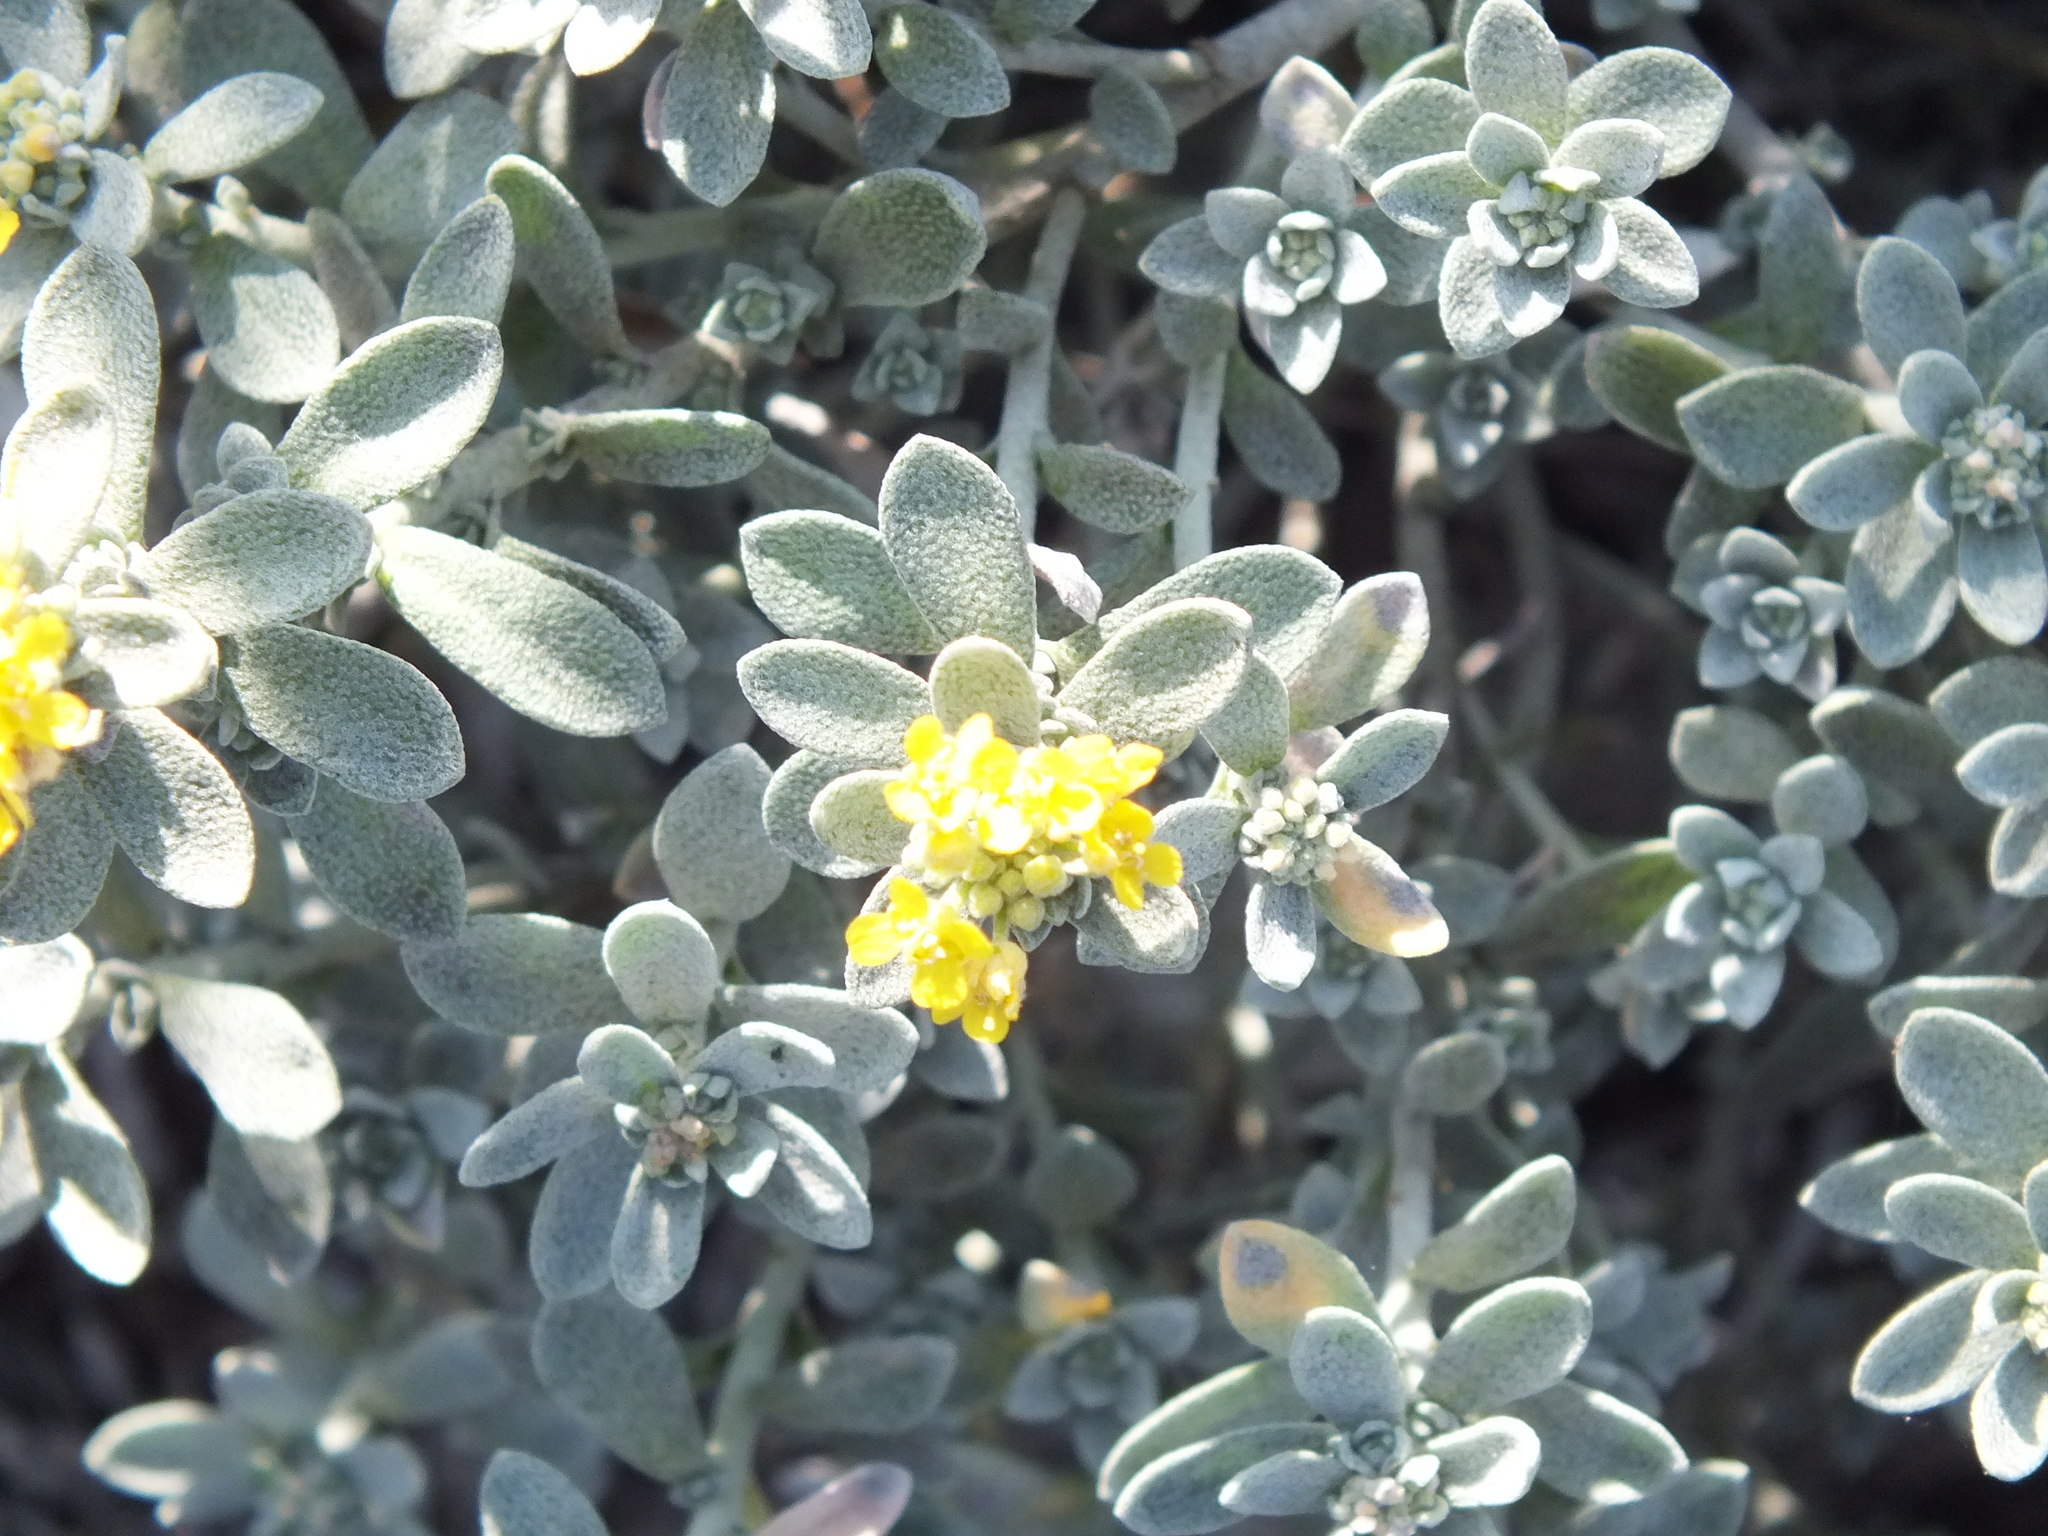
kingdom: Plantae
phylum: Tracheophyta
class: Magnoliopsida
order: Brassicales
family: Brassicaceae
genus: Odontarrhena
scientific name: Odontarrhena obovata
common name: American alyssum
